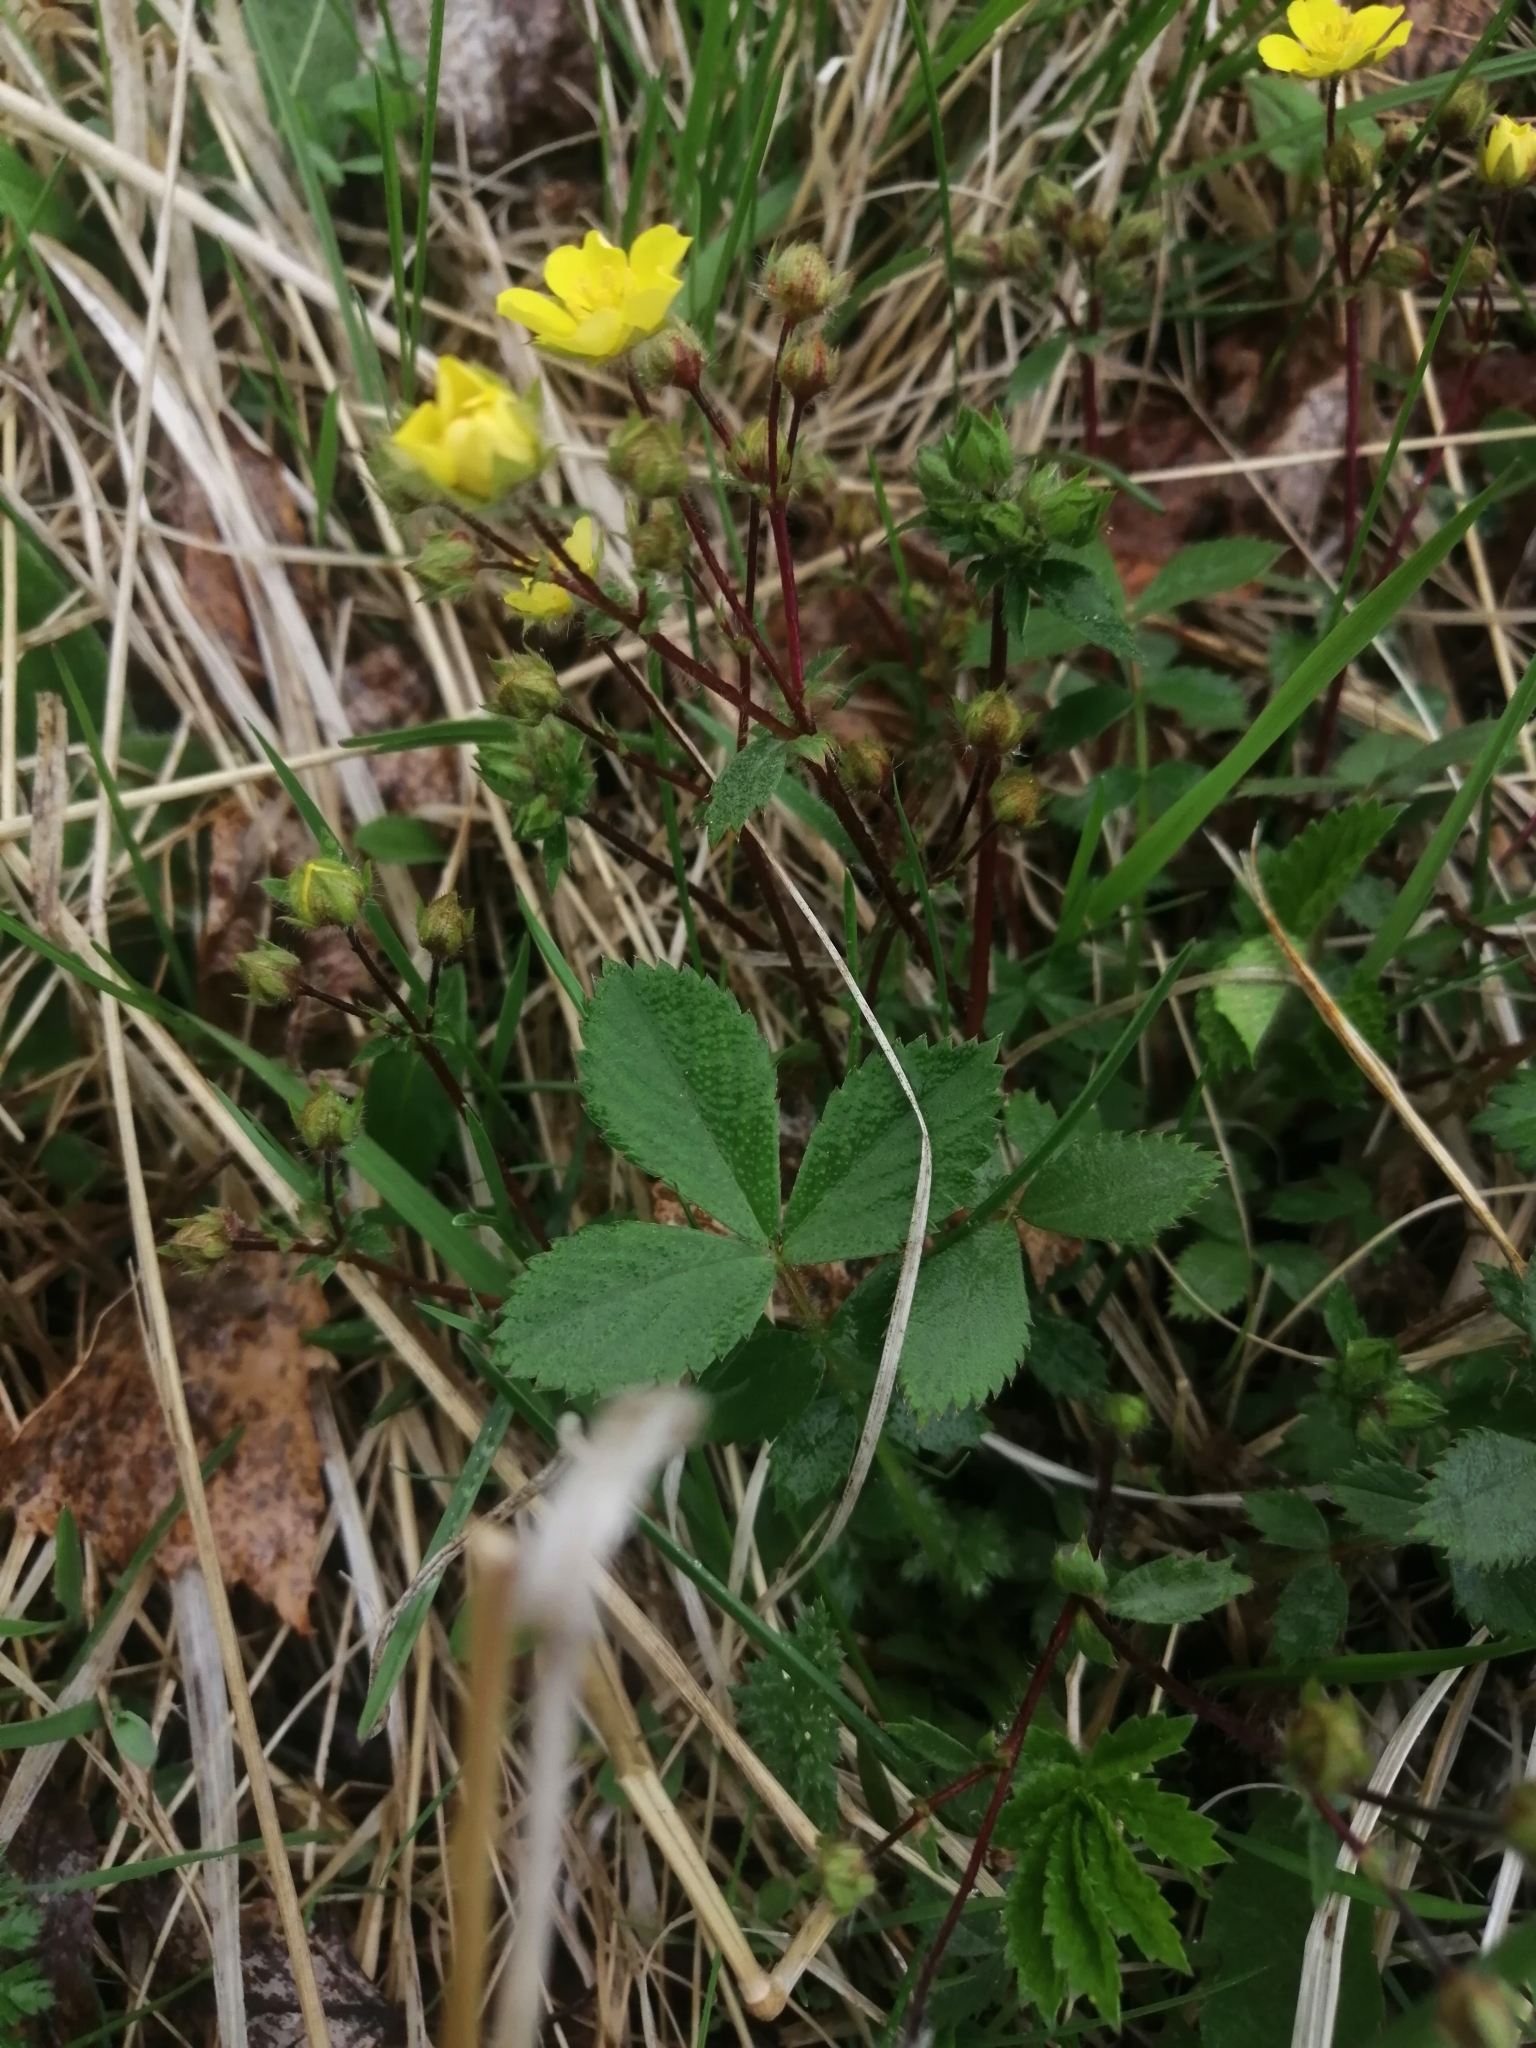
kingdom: Plantae
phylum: Tracheophyta
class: Magnoliopsida
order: Rosales
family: Rosaceae
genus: Potentilla
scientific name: Potentilla fragarioides
